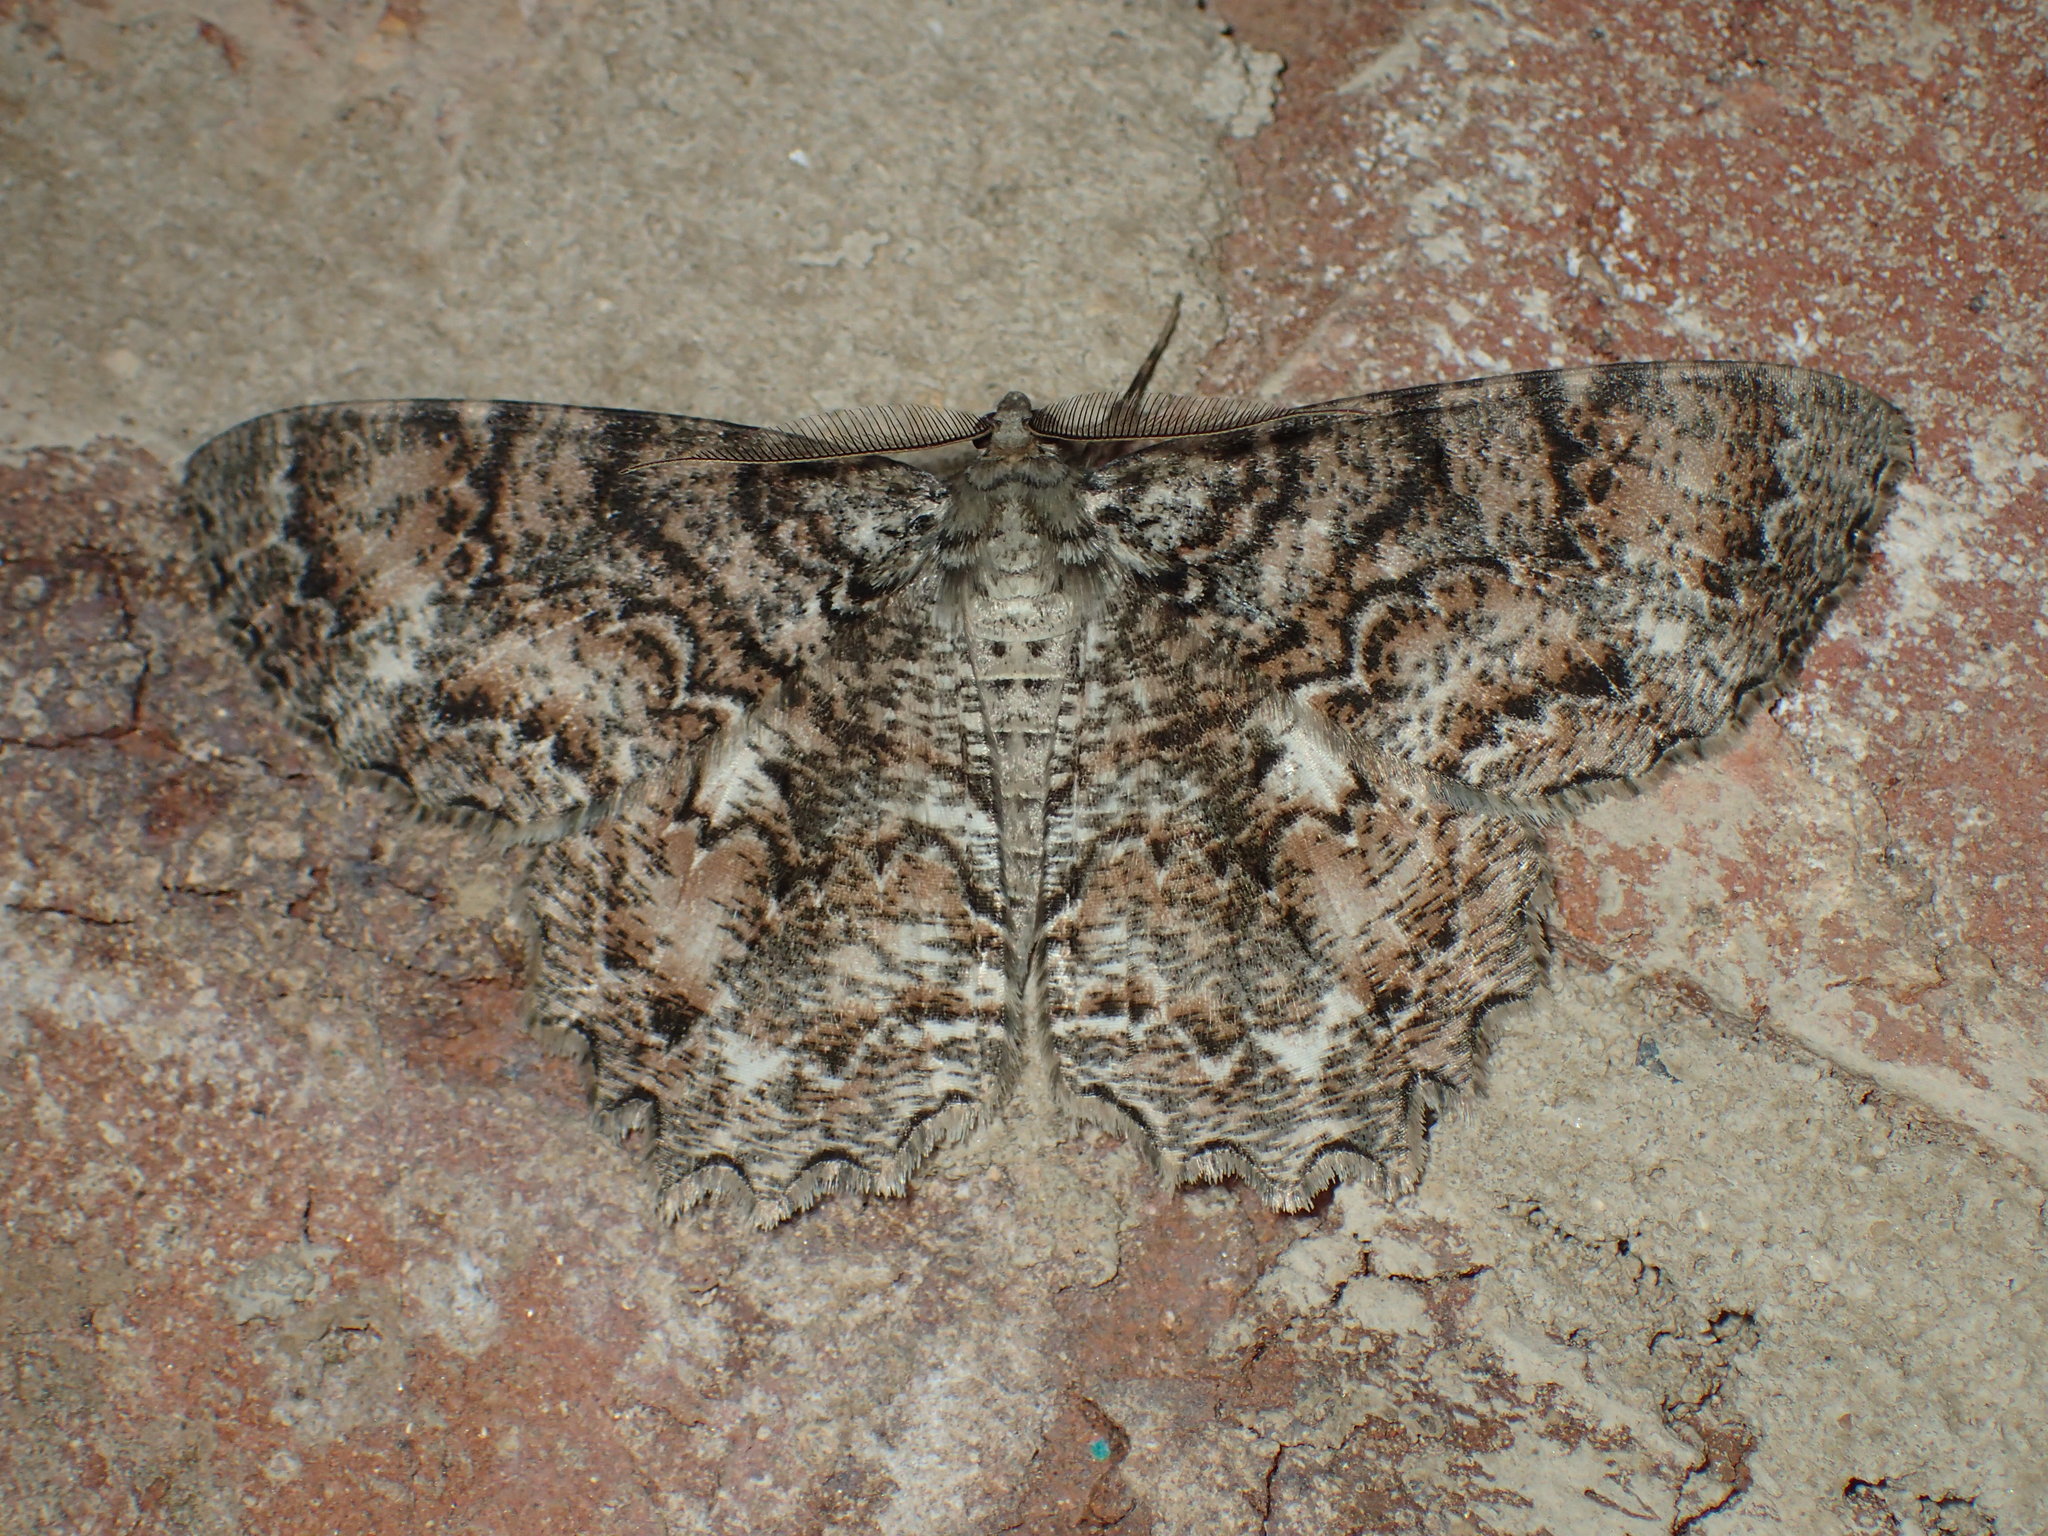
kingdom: Animalia
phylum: Arthropoda
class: Insecta
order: Lepidoptera
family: Geometridae
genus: Epimecis
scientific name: Epimecis hortaria
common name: Tulip-tree beauty
